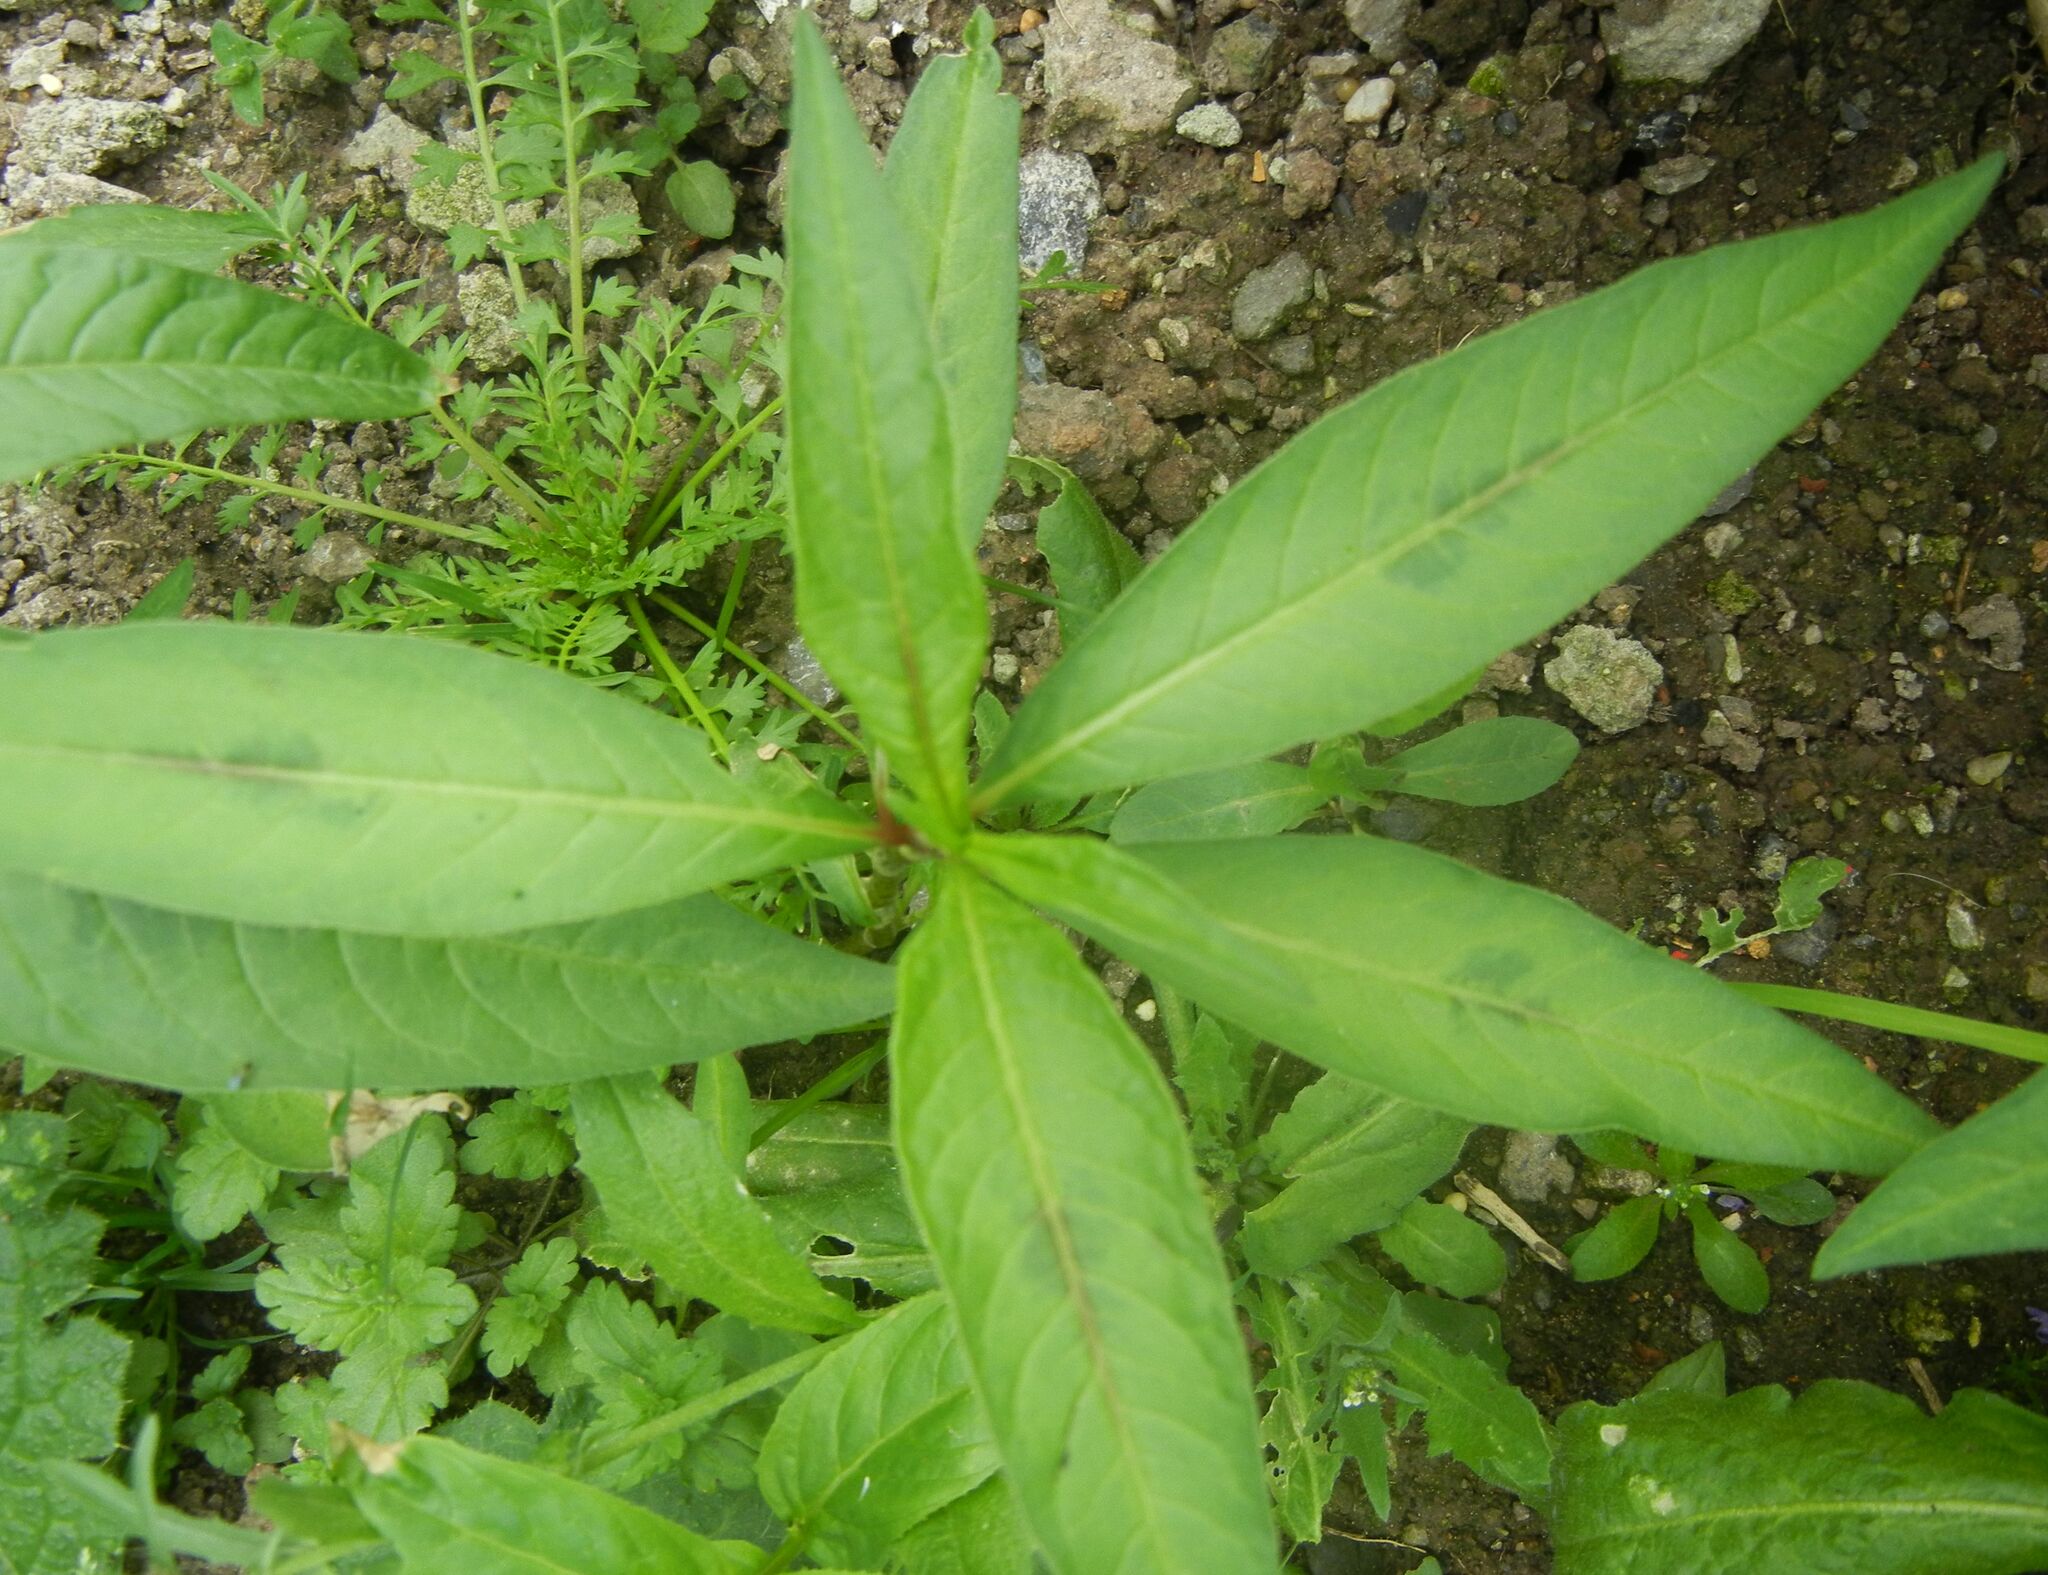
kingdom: Plantae
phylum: Tracheophyta
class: Magnoliopsida
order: Caryophyllales
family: Polygonaceae
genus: Persicaria
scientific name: Persicaria maculosa
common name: Redshank
